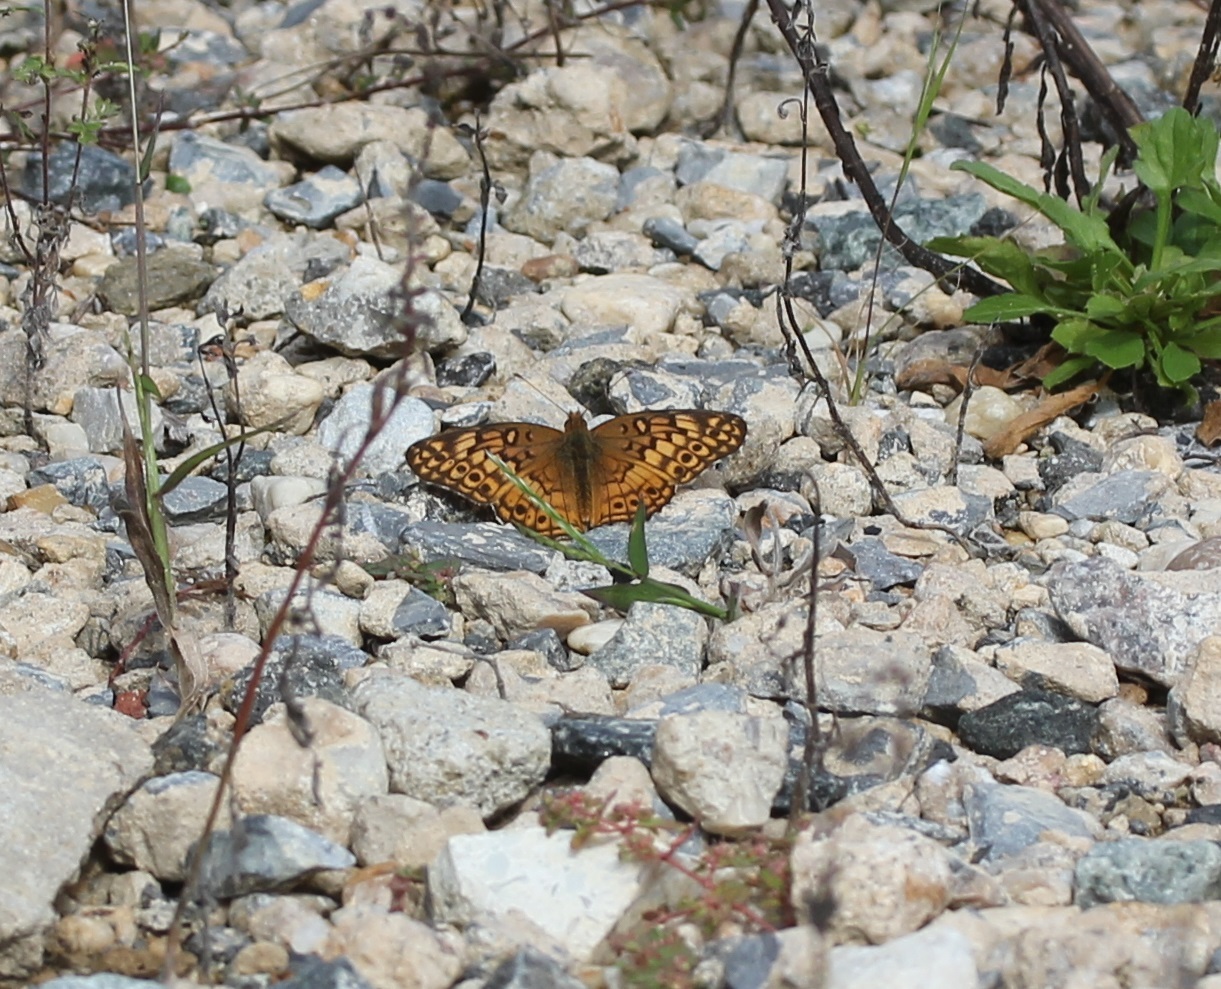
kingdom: Animalia
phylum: Arthropoda
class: Insecta
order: Lepidoptera
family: Nymphalidae
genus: Euptoieta
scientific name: Euptoieta claudia
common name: Variegated fritillary
